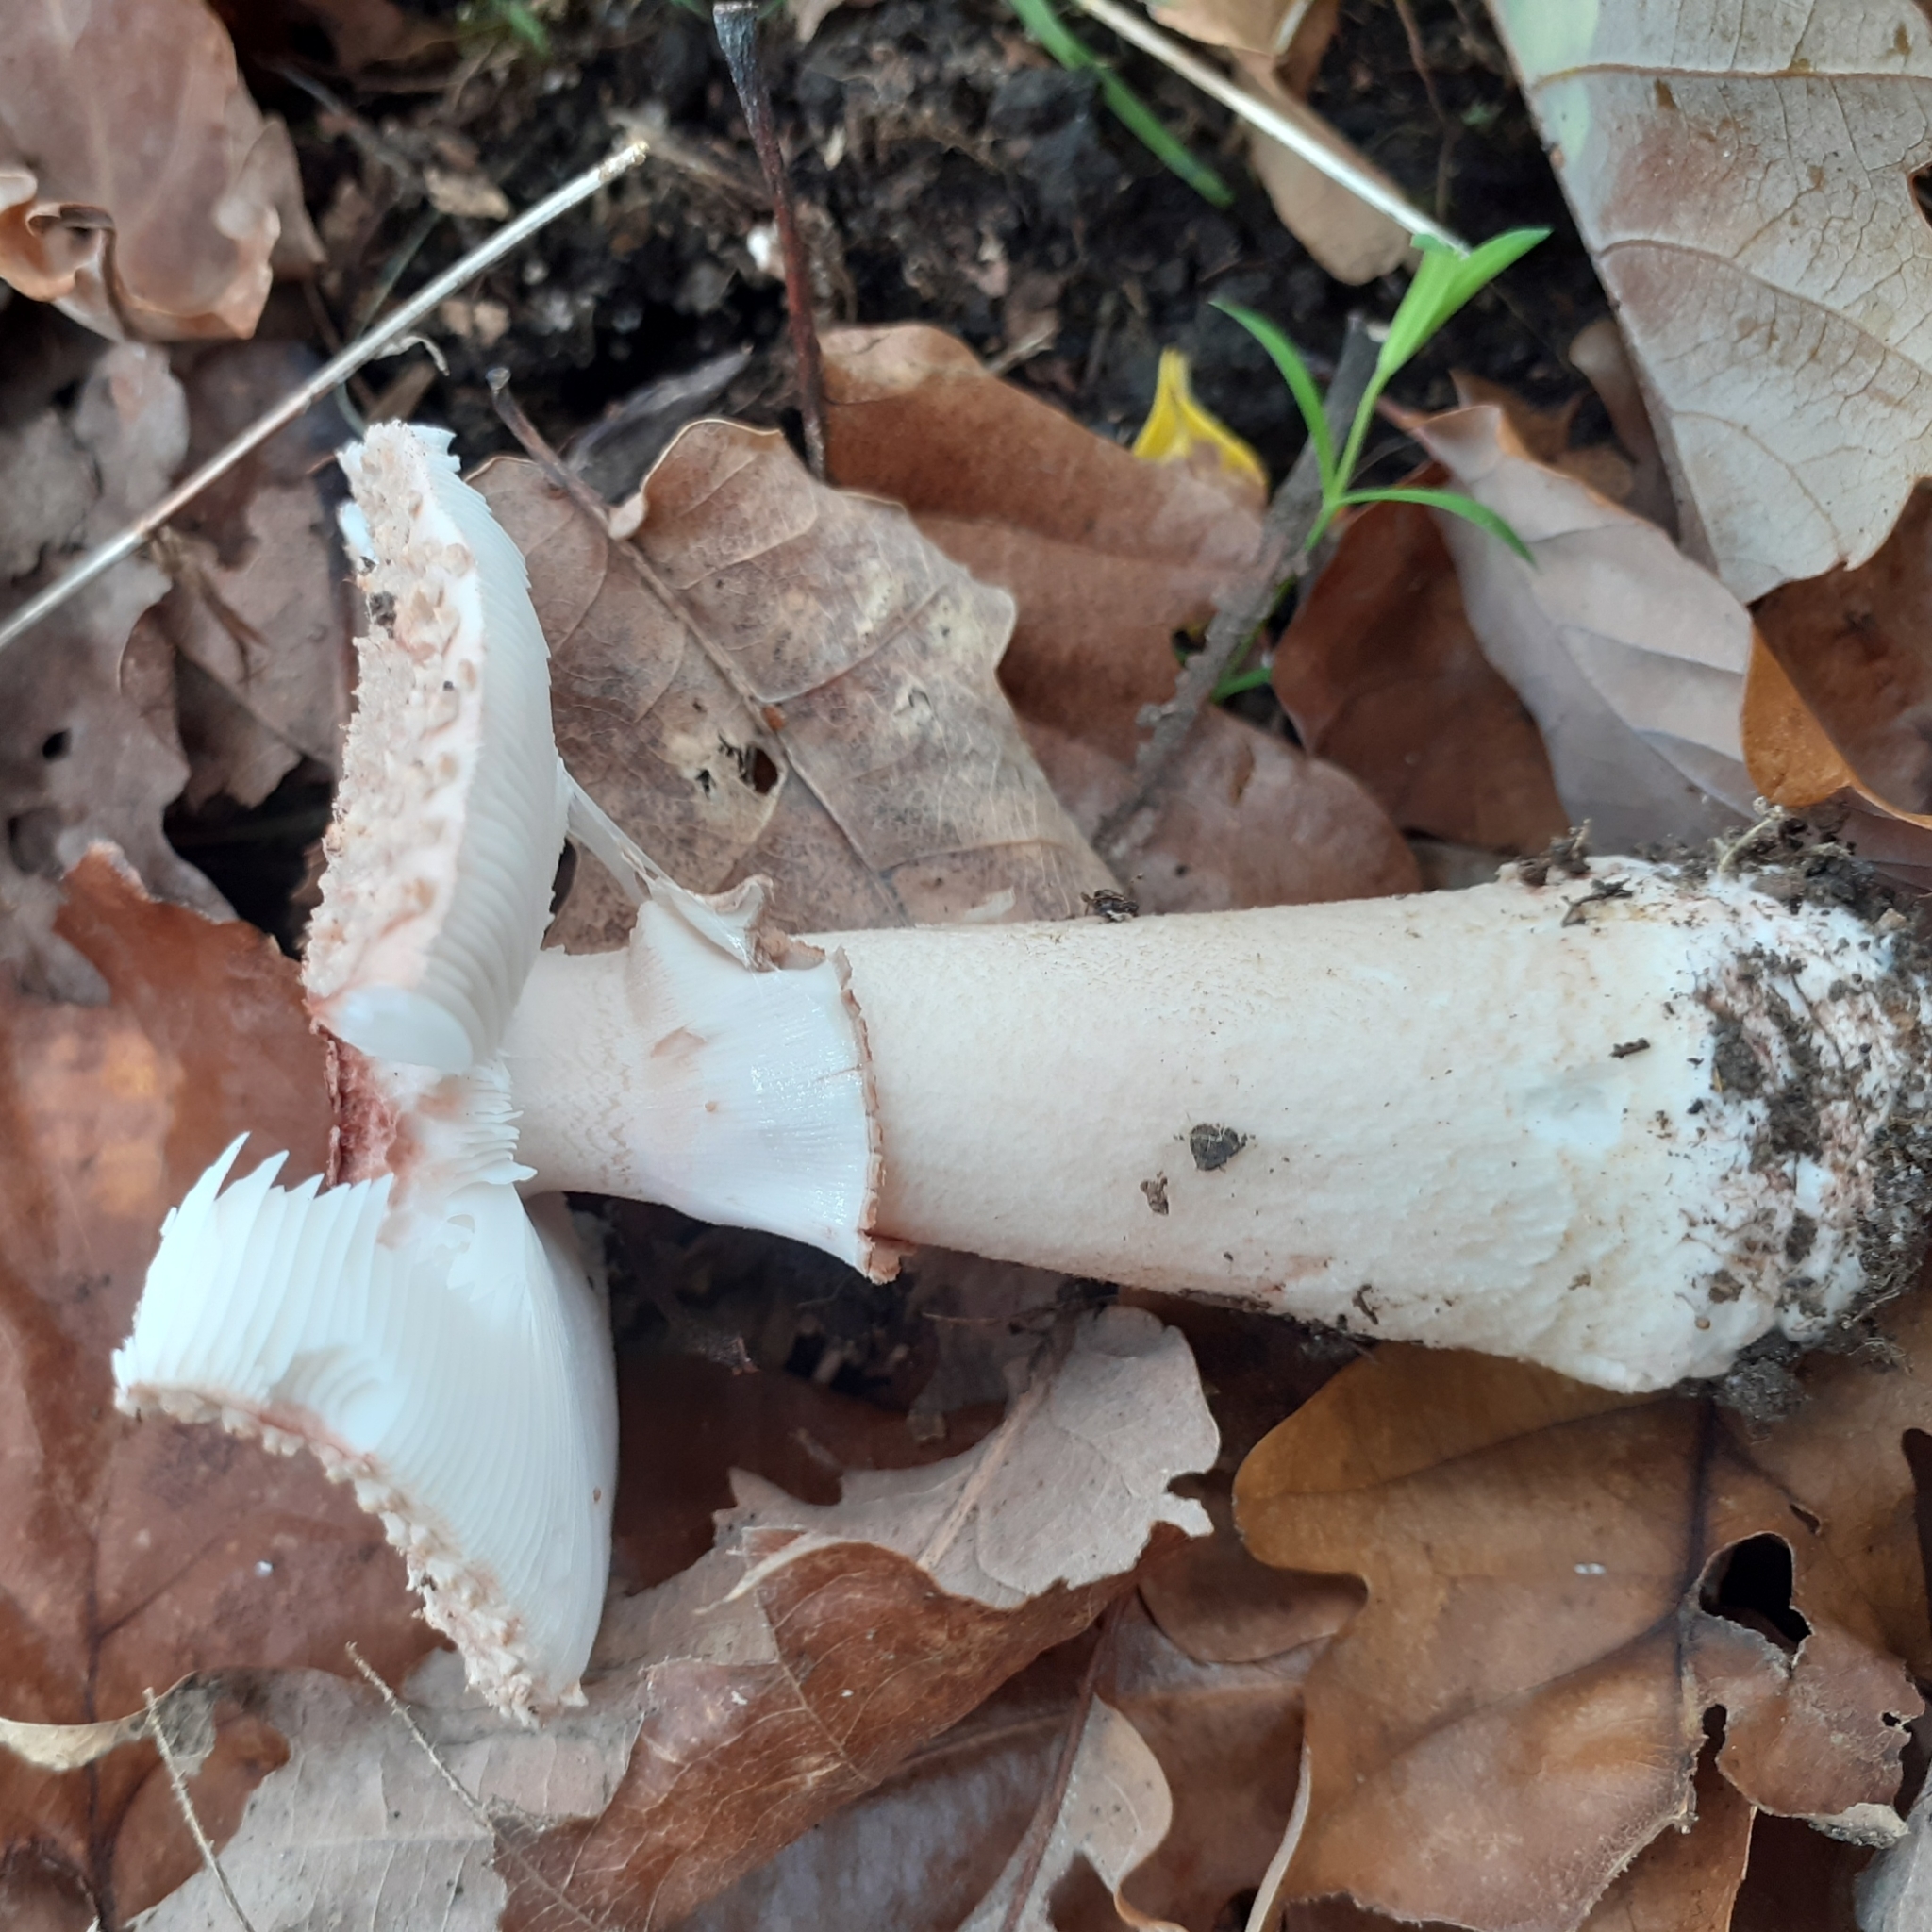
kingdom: Fungi
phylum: Basidiomycota
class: Agaricomycetes
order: Agaricales
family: Amanitaceae
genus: Amanita
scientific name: Amanita rubescens
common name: Blusher
